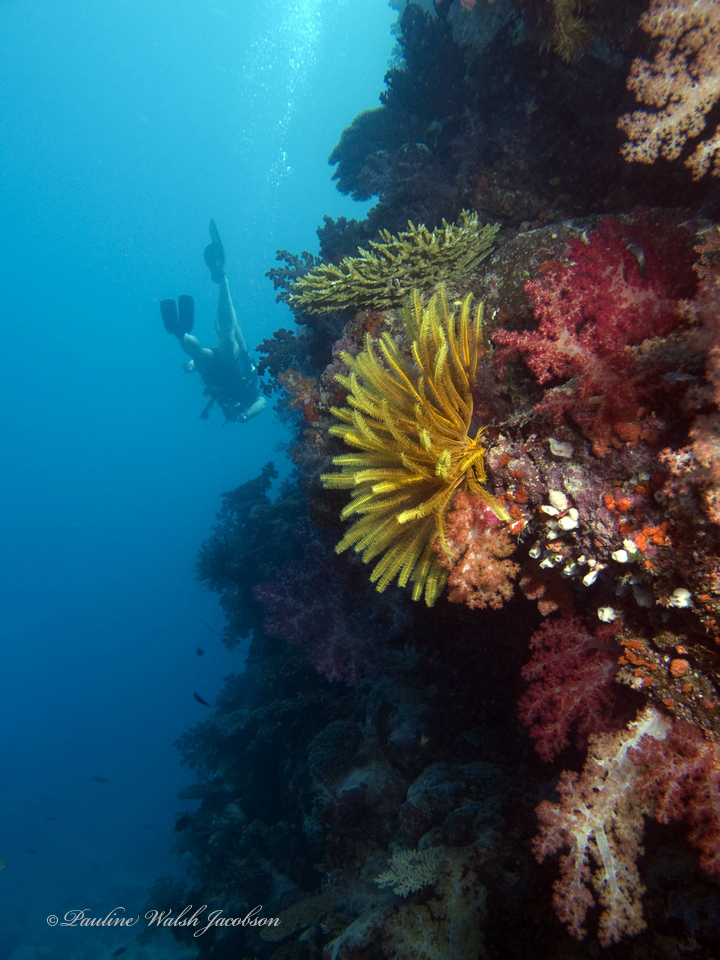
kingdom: Animalia
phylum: Echinodermata
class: Crinoidea
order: Comatulida
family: Comatulidae
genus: Anneissia
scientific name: Anneissia bennetti
